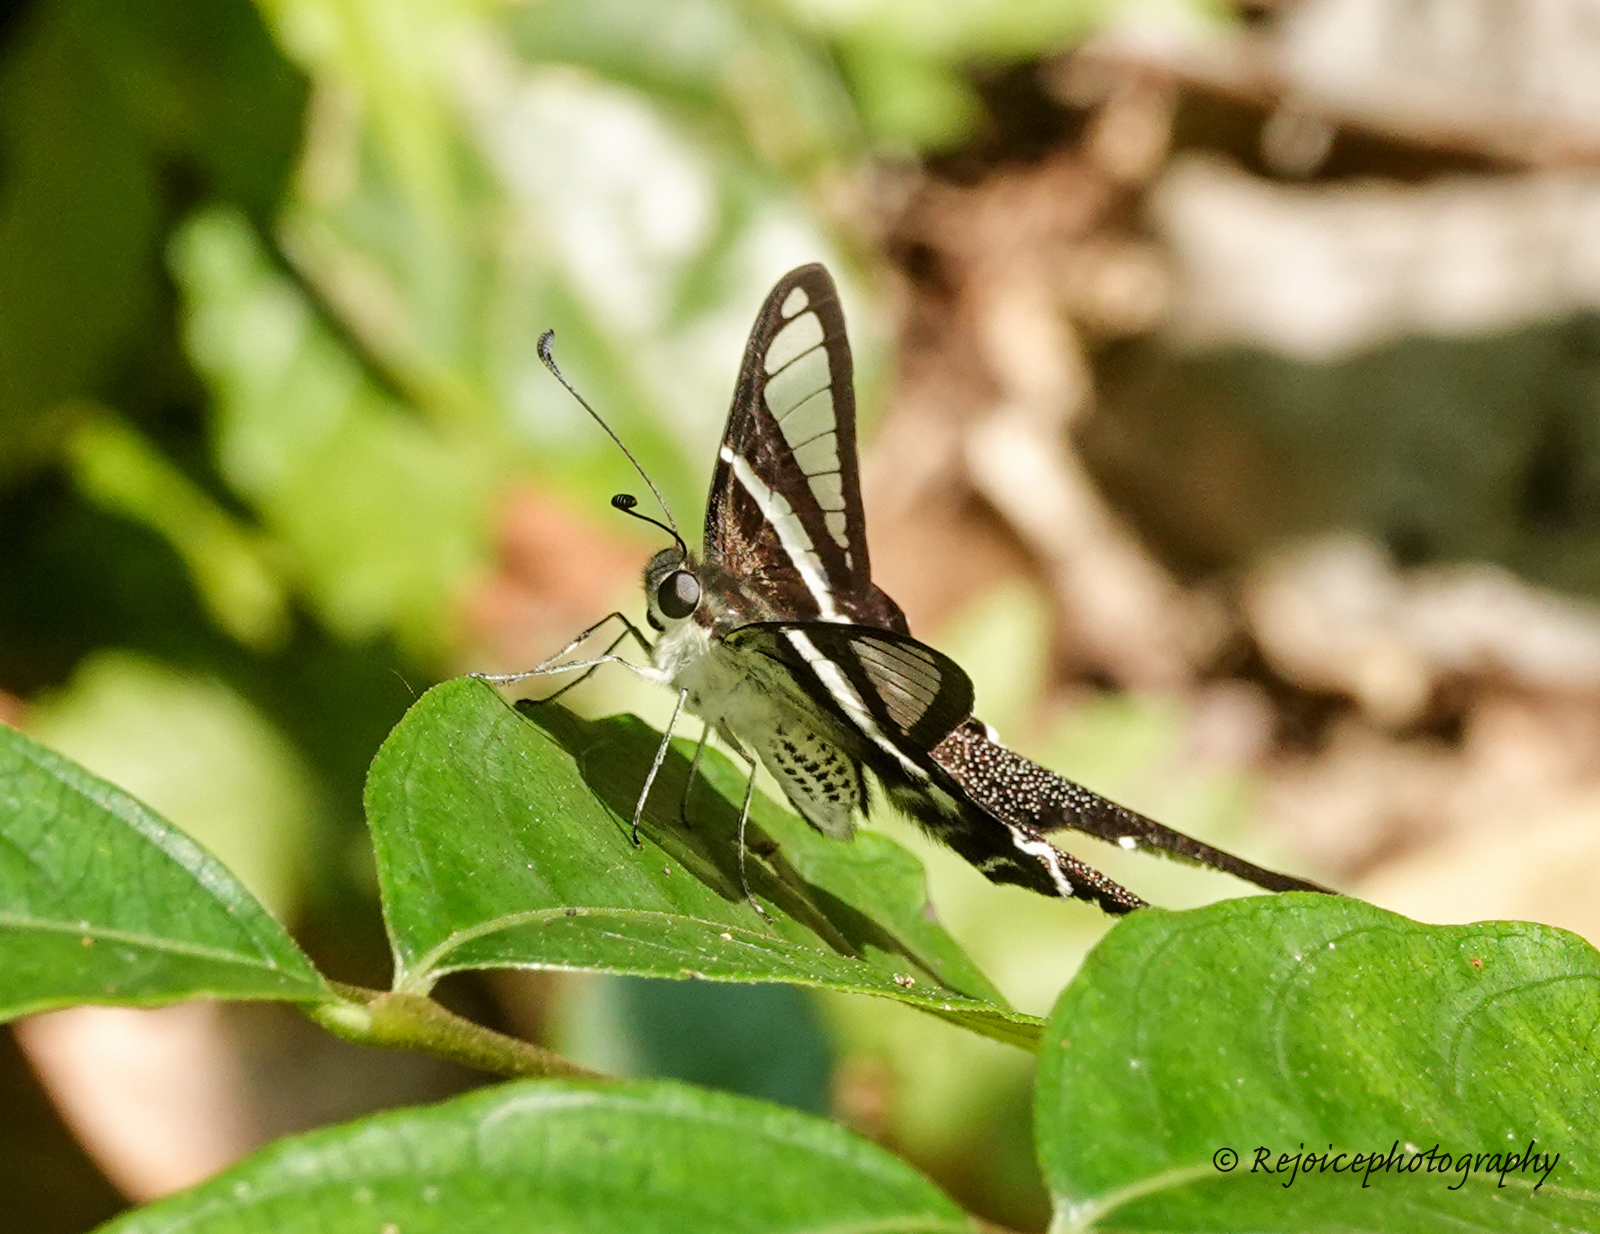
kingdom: Animalia
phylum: Arthropoda
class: Insecta
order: Lepidoptera
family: Papilionidae
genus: Lamproptera
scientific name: Lamproptera curius
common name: White dragontail
